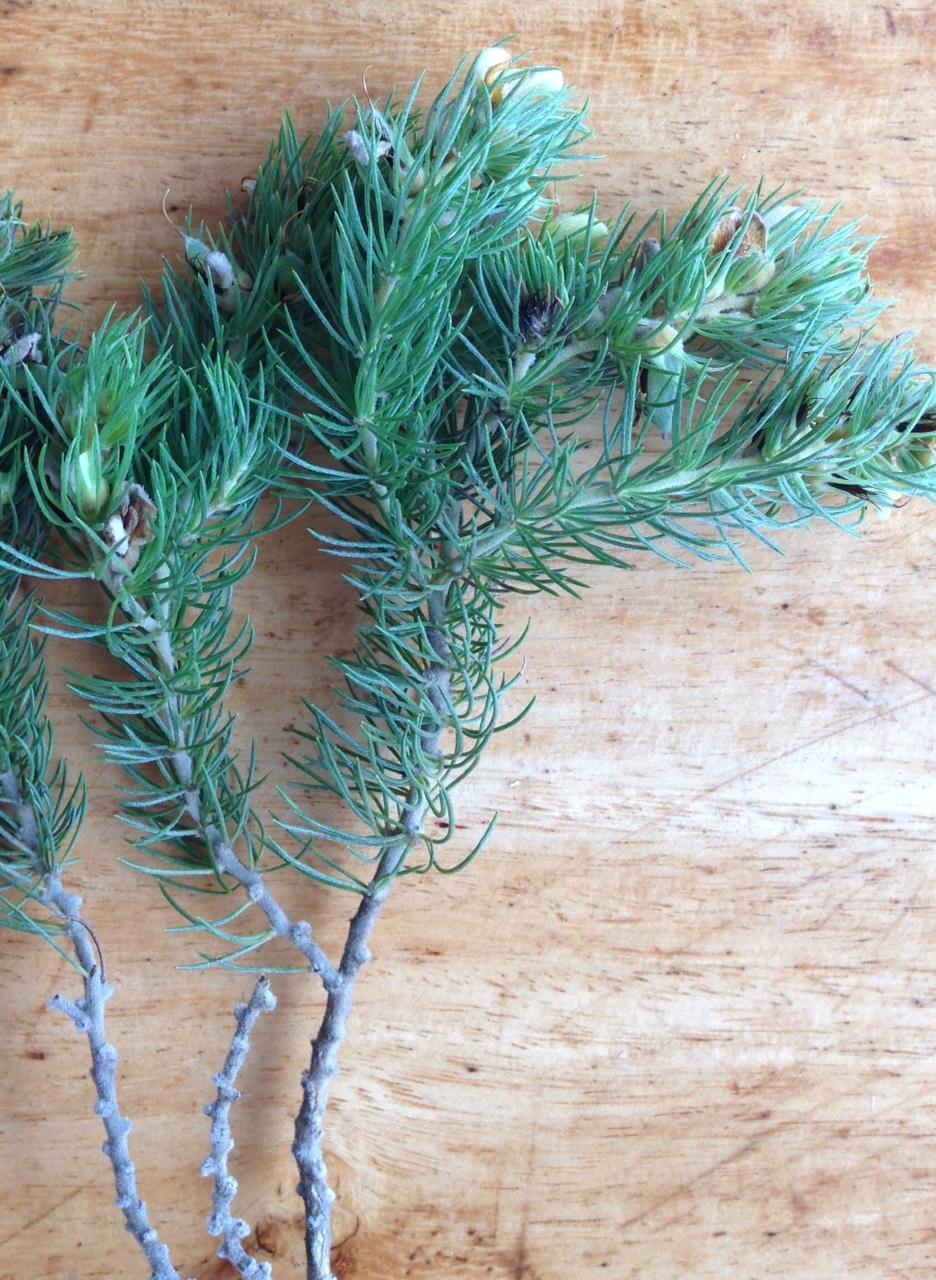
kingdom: Plantae
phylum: Tracheophyta
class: Magnoliopsida
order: Fabales
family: Fabaceae
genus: Aspalathus
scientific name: Aspalathus setacea
